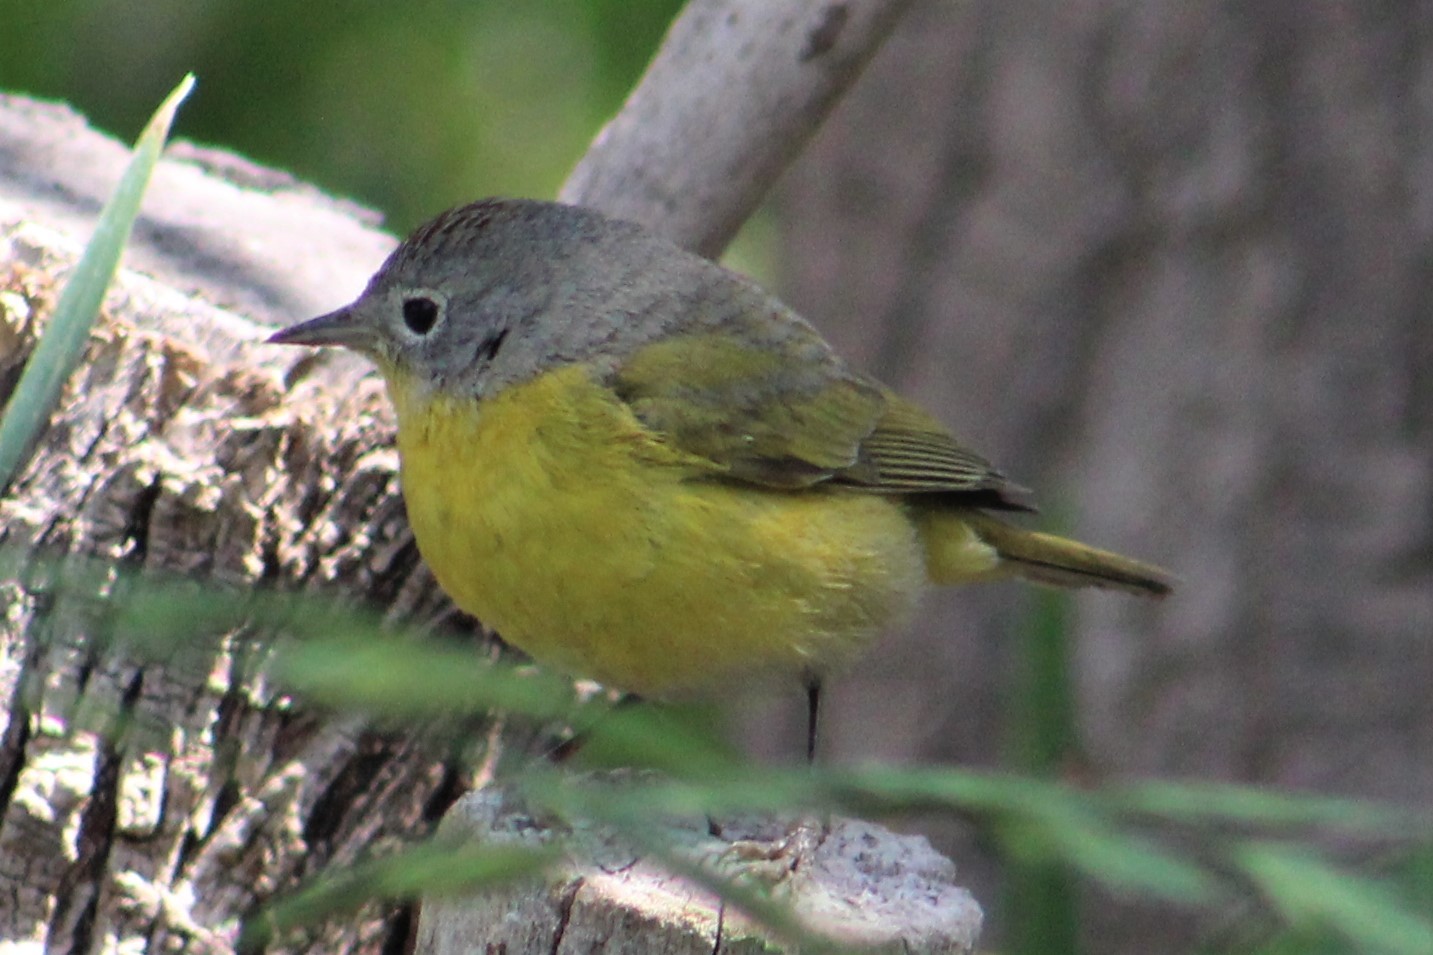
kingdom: Animalia
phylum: Chordata
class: Aves
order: Passeriformes
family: Parulidae
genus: Leiothlypis
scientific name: Leiothlypis ruficapilla
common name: Nashville warbler
